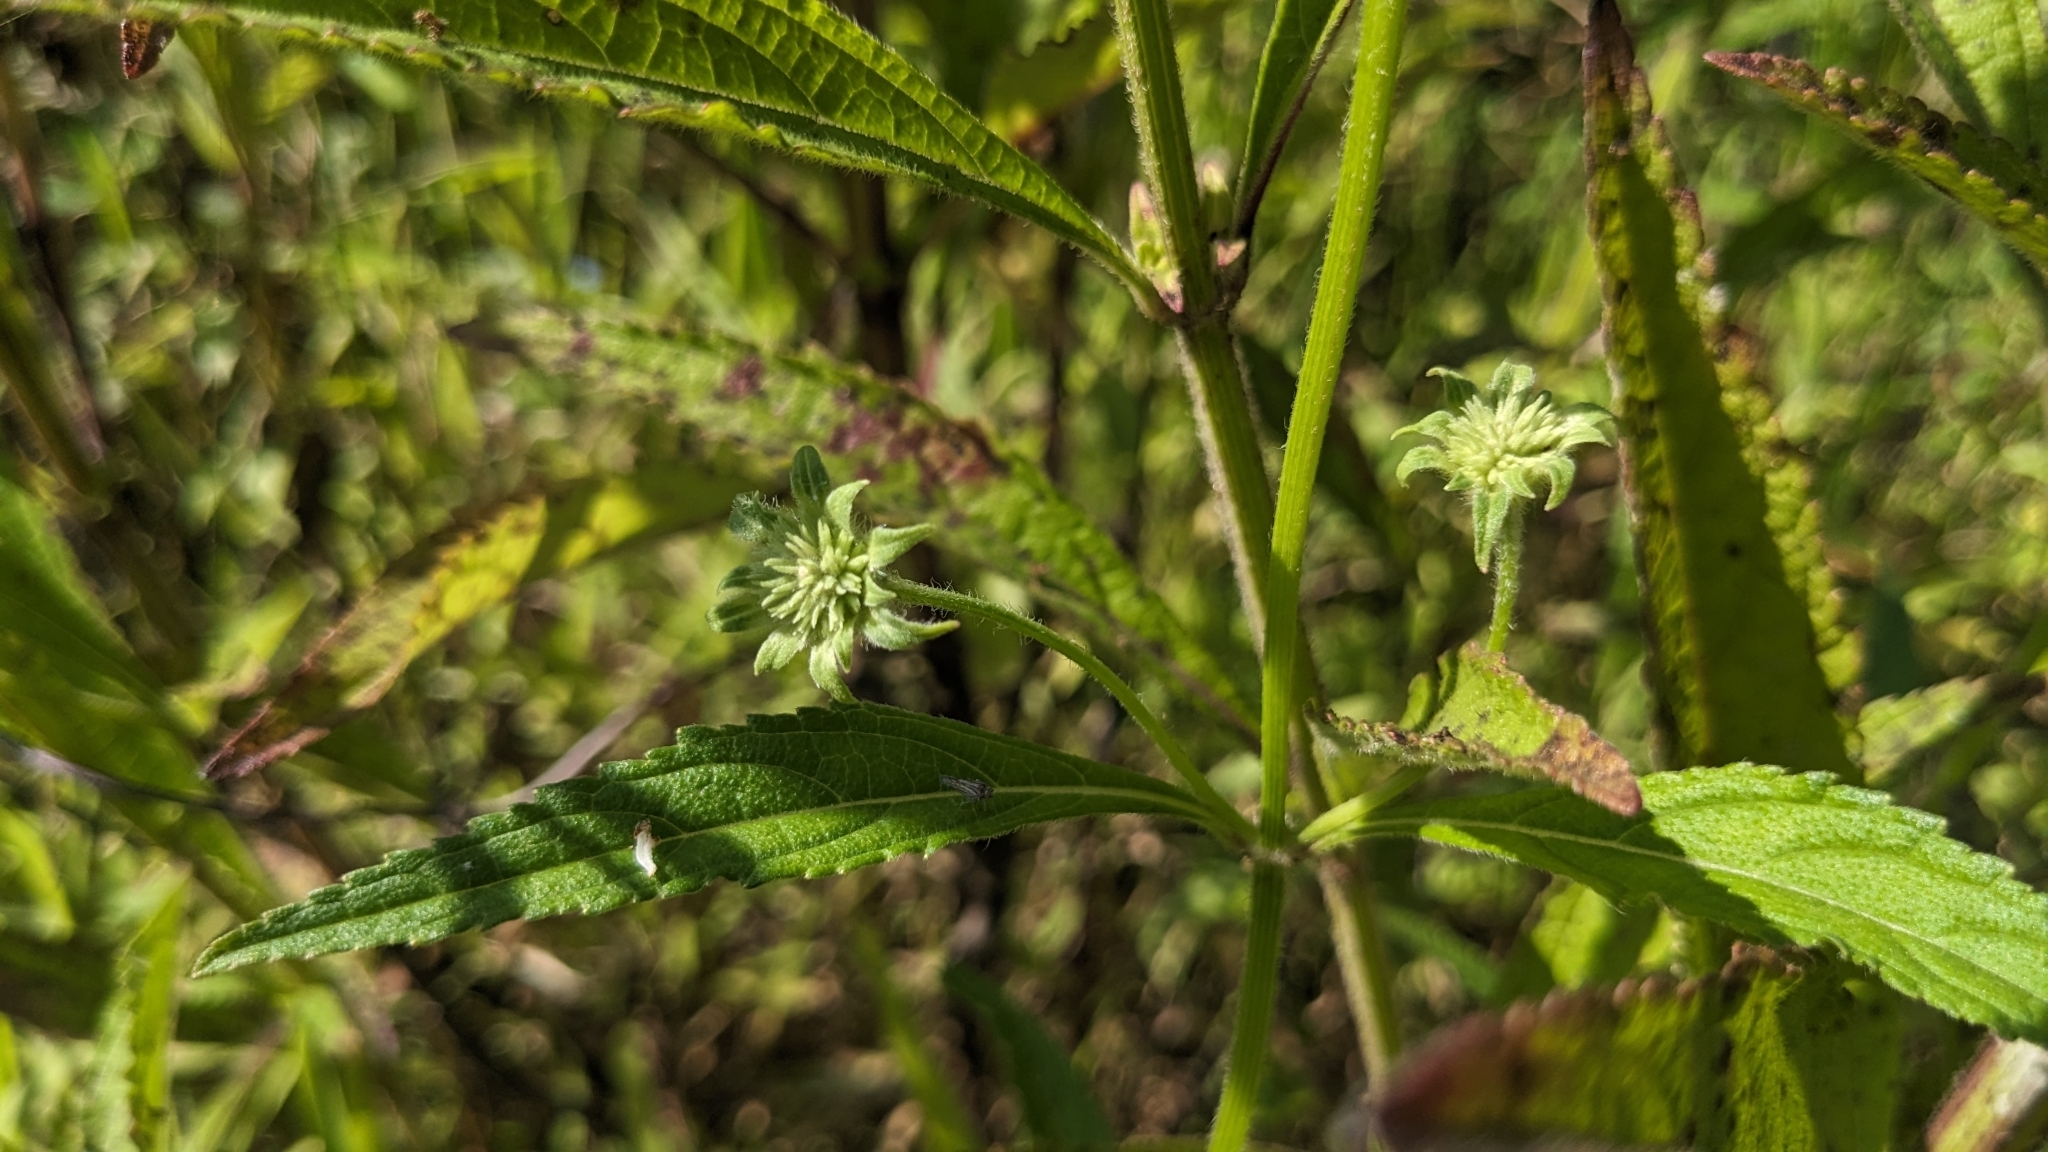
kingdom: Plantae
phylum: Tracheophyta
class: Magnoliopsida
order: Lamiales
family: Lamiaceae
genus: Hyptis
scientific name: Hyptis capitata
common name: False ironwort
